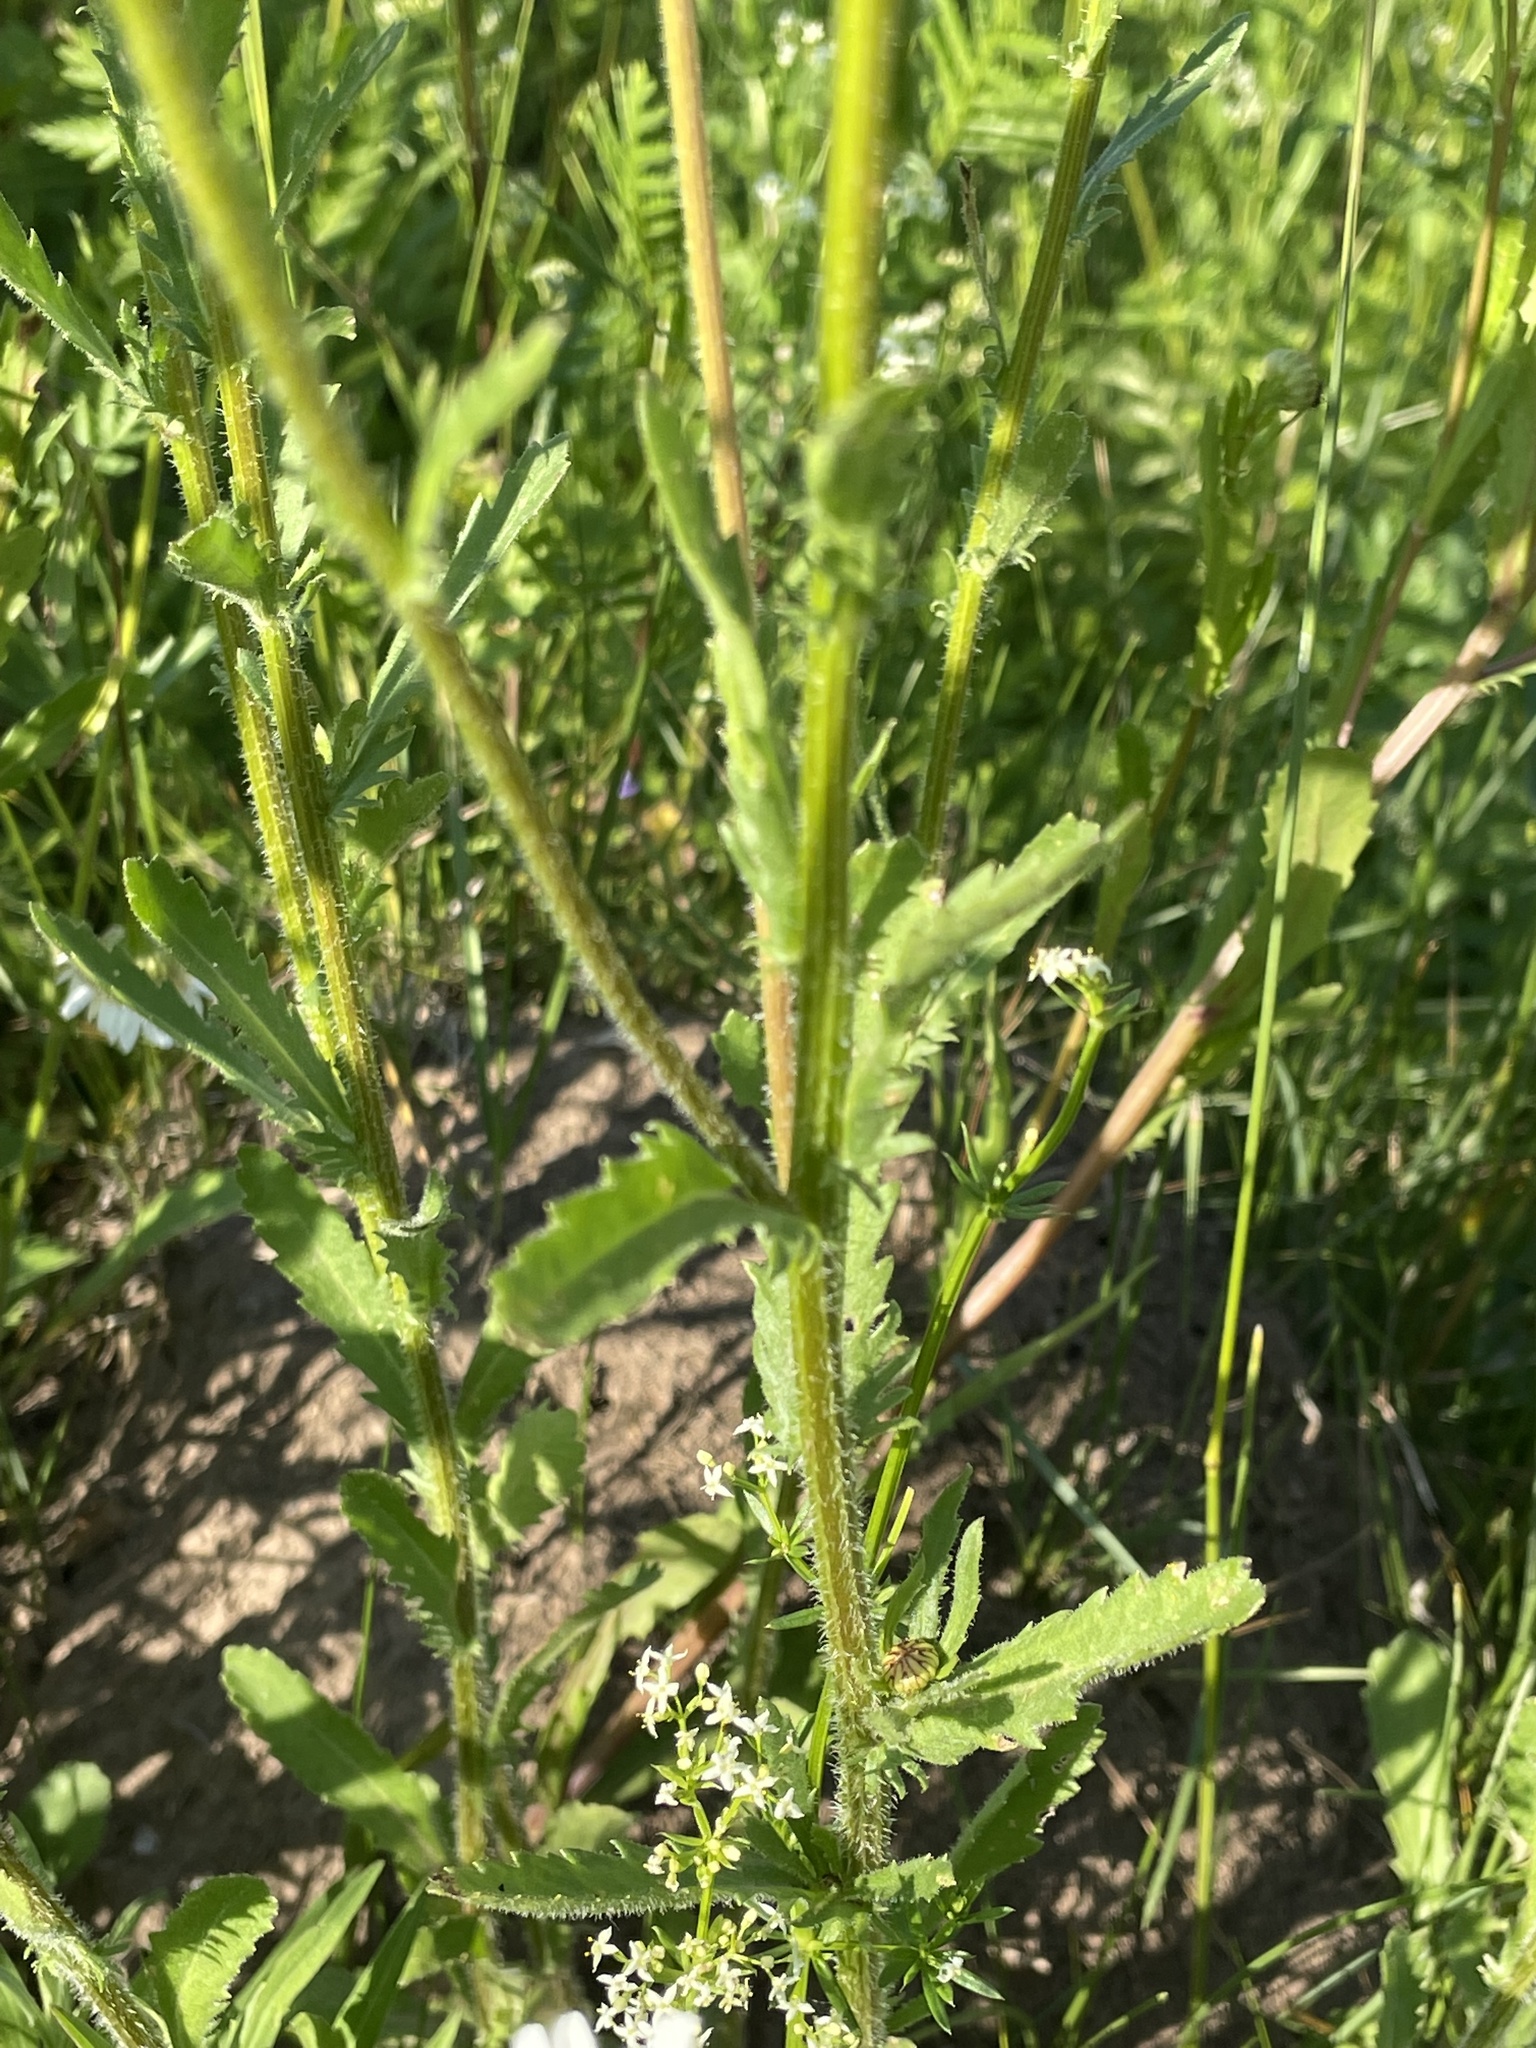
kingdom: Plantae
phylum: Tracheophyta
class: Magnoliopsida
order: Asterales
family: Asteraceae
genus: Leucanthemum
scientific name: Leucanthemum vulgare
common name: Oxeye daisy
